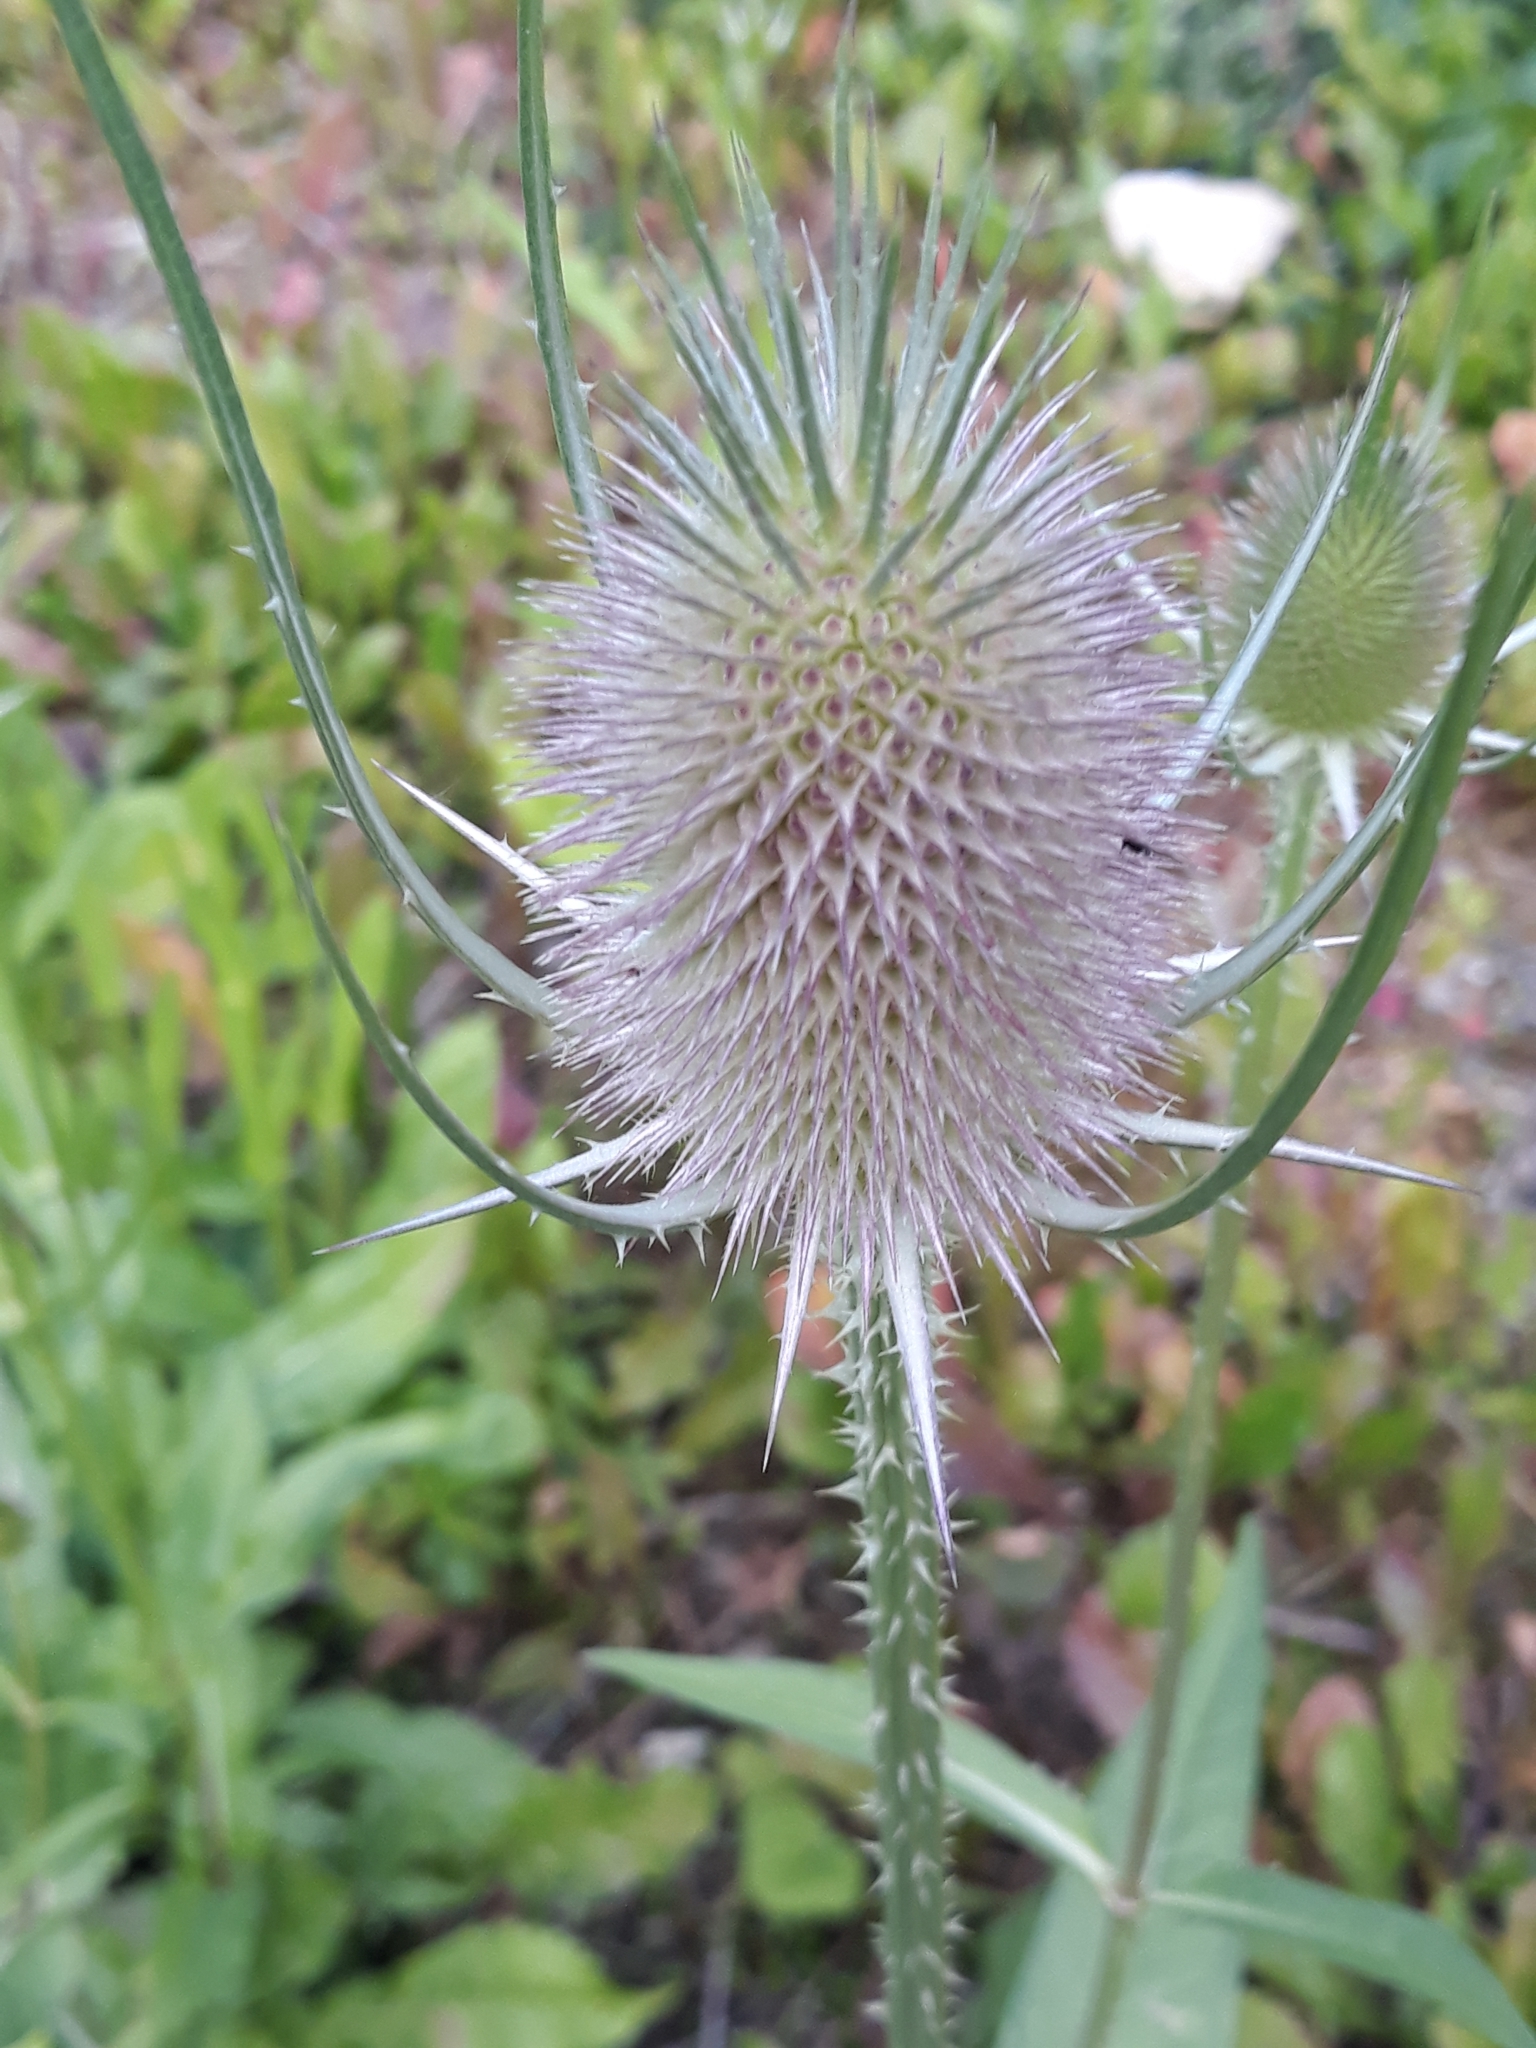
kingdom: Plantae
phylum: Tracheophyta
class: Magnoliopsida
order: Dipsacales
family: Caprifoliaceae
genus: Dipsacus
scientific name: Dipsacus fullonum
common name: Teasel
